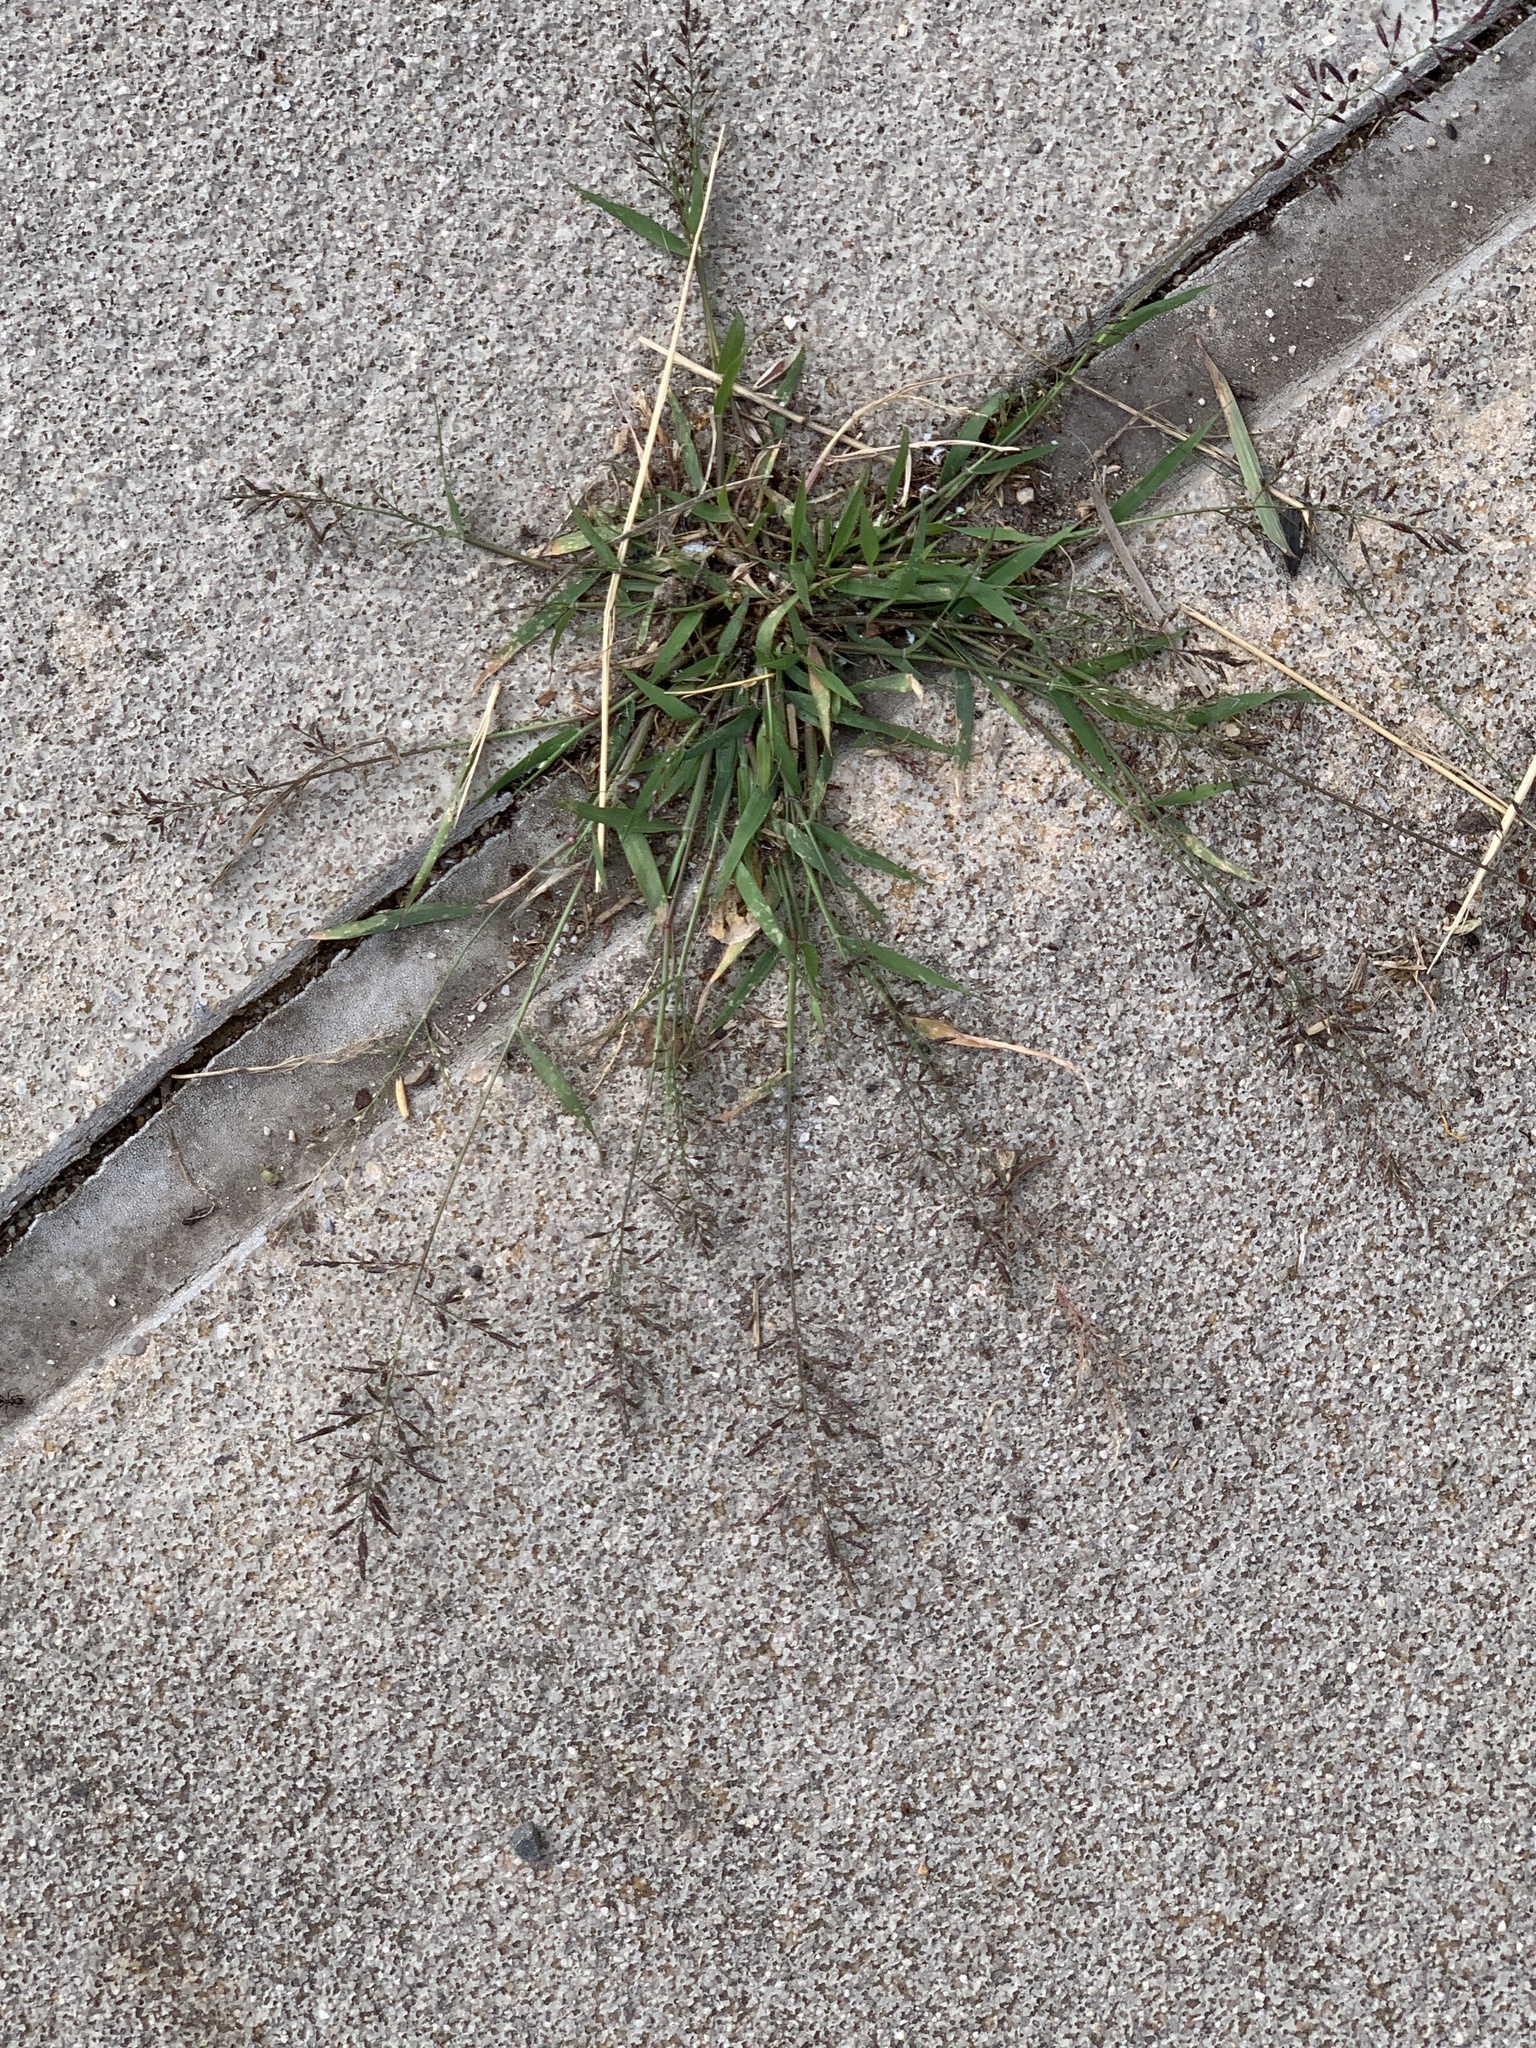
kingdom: Plantae
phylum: Tracheophyta
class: Liliopsida
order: Poales
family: Poaceae
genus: Eragrostis
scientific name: Eragrostis minor
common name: Small love-grass
